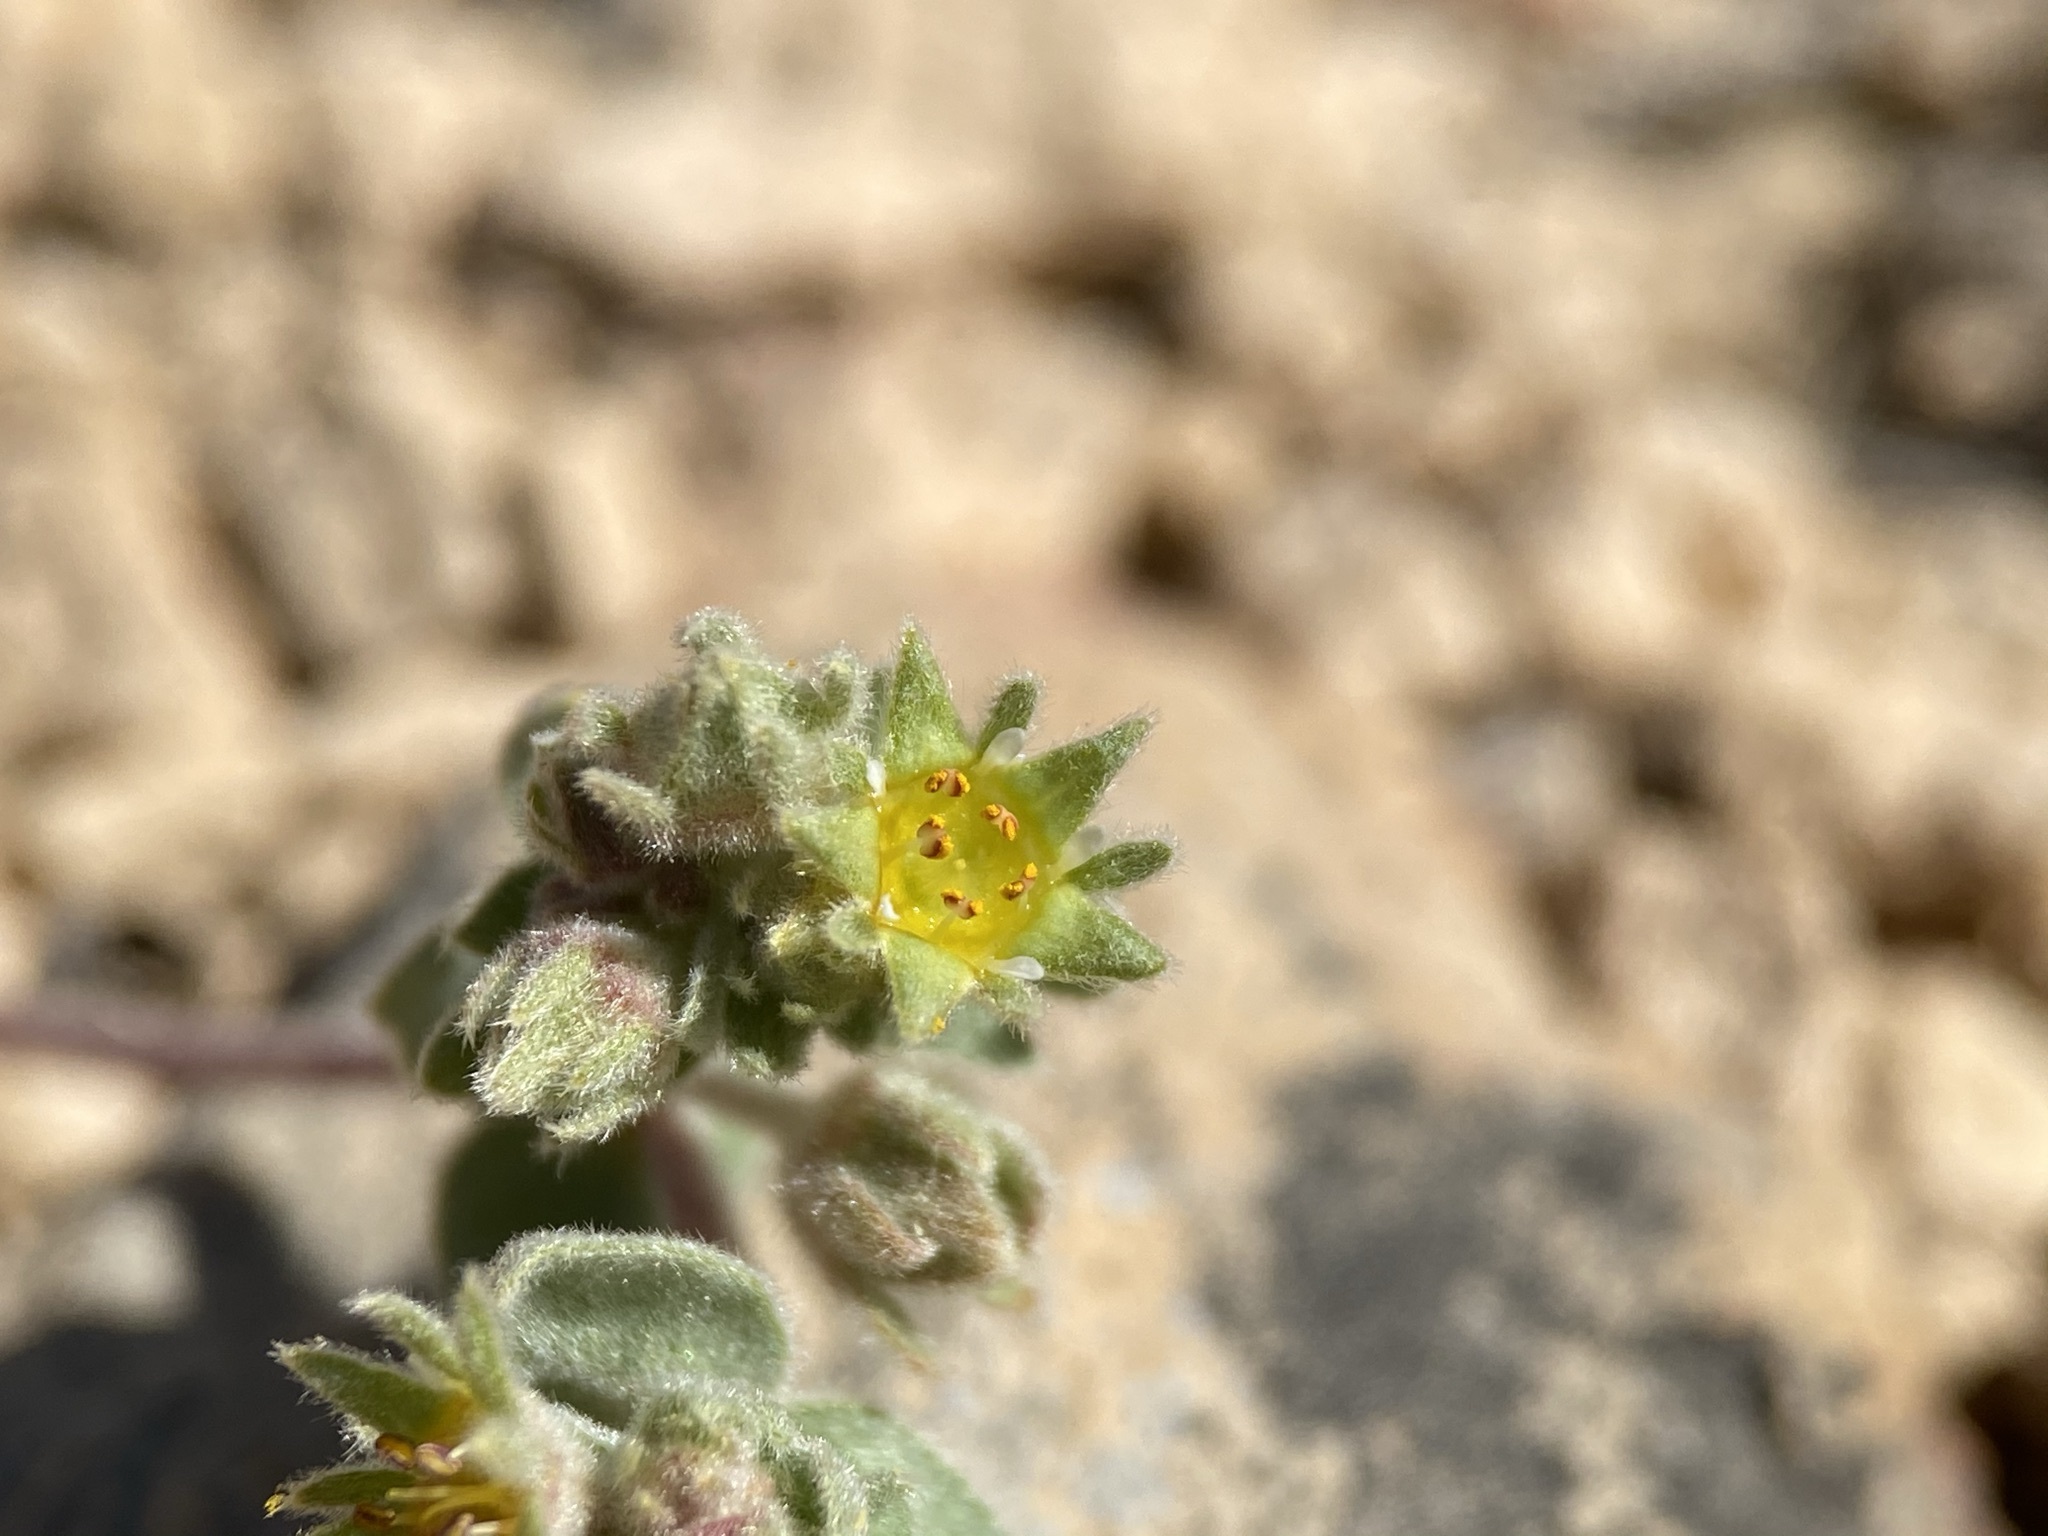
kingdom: Plantae
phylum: Tracheophyta
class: Magnoliopsida
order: Rosales
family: Rosaceae
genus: Potentilla
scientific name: Potentilla rhypara
